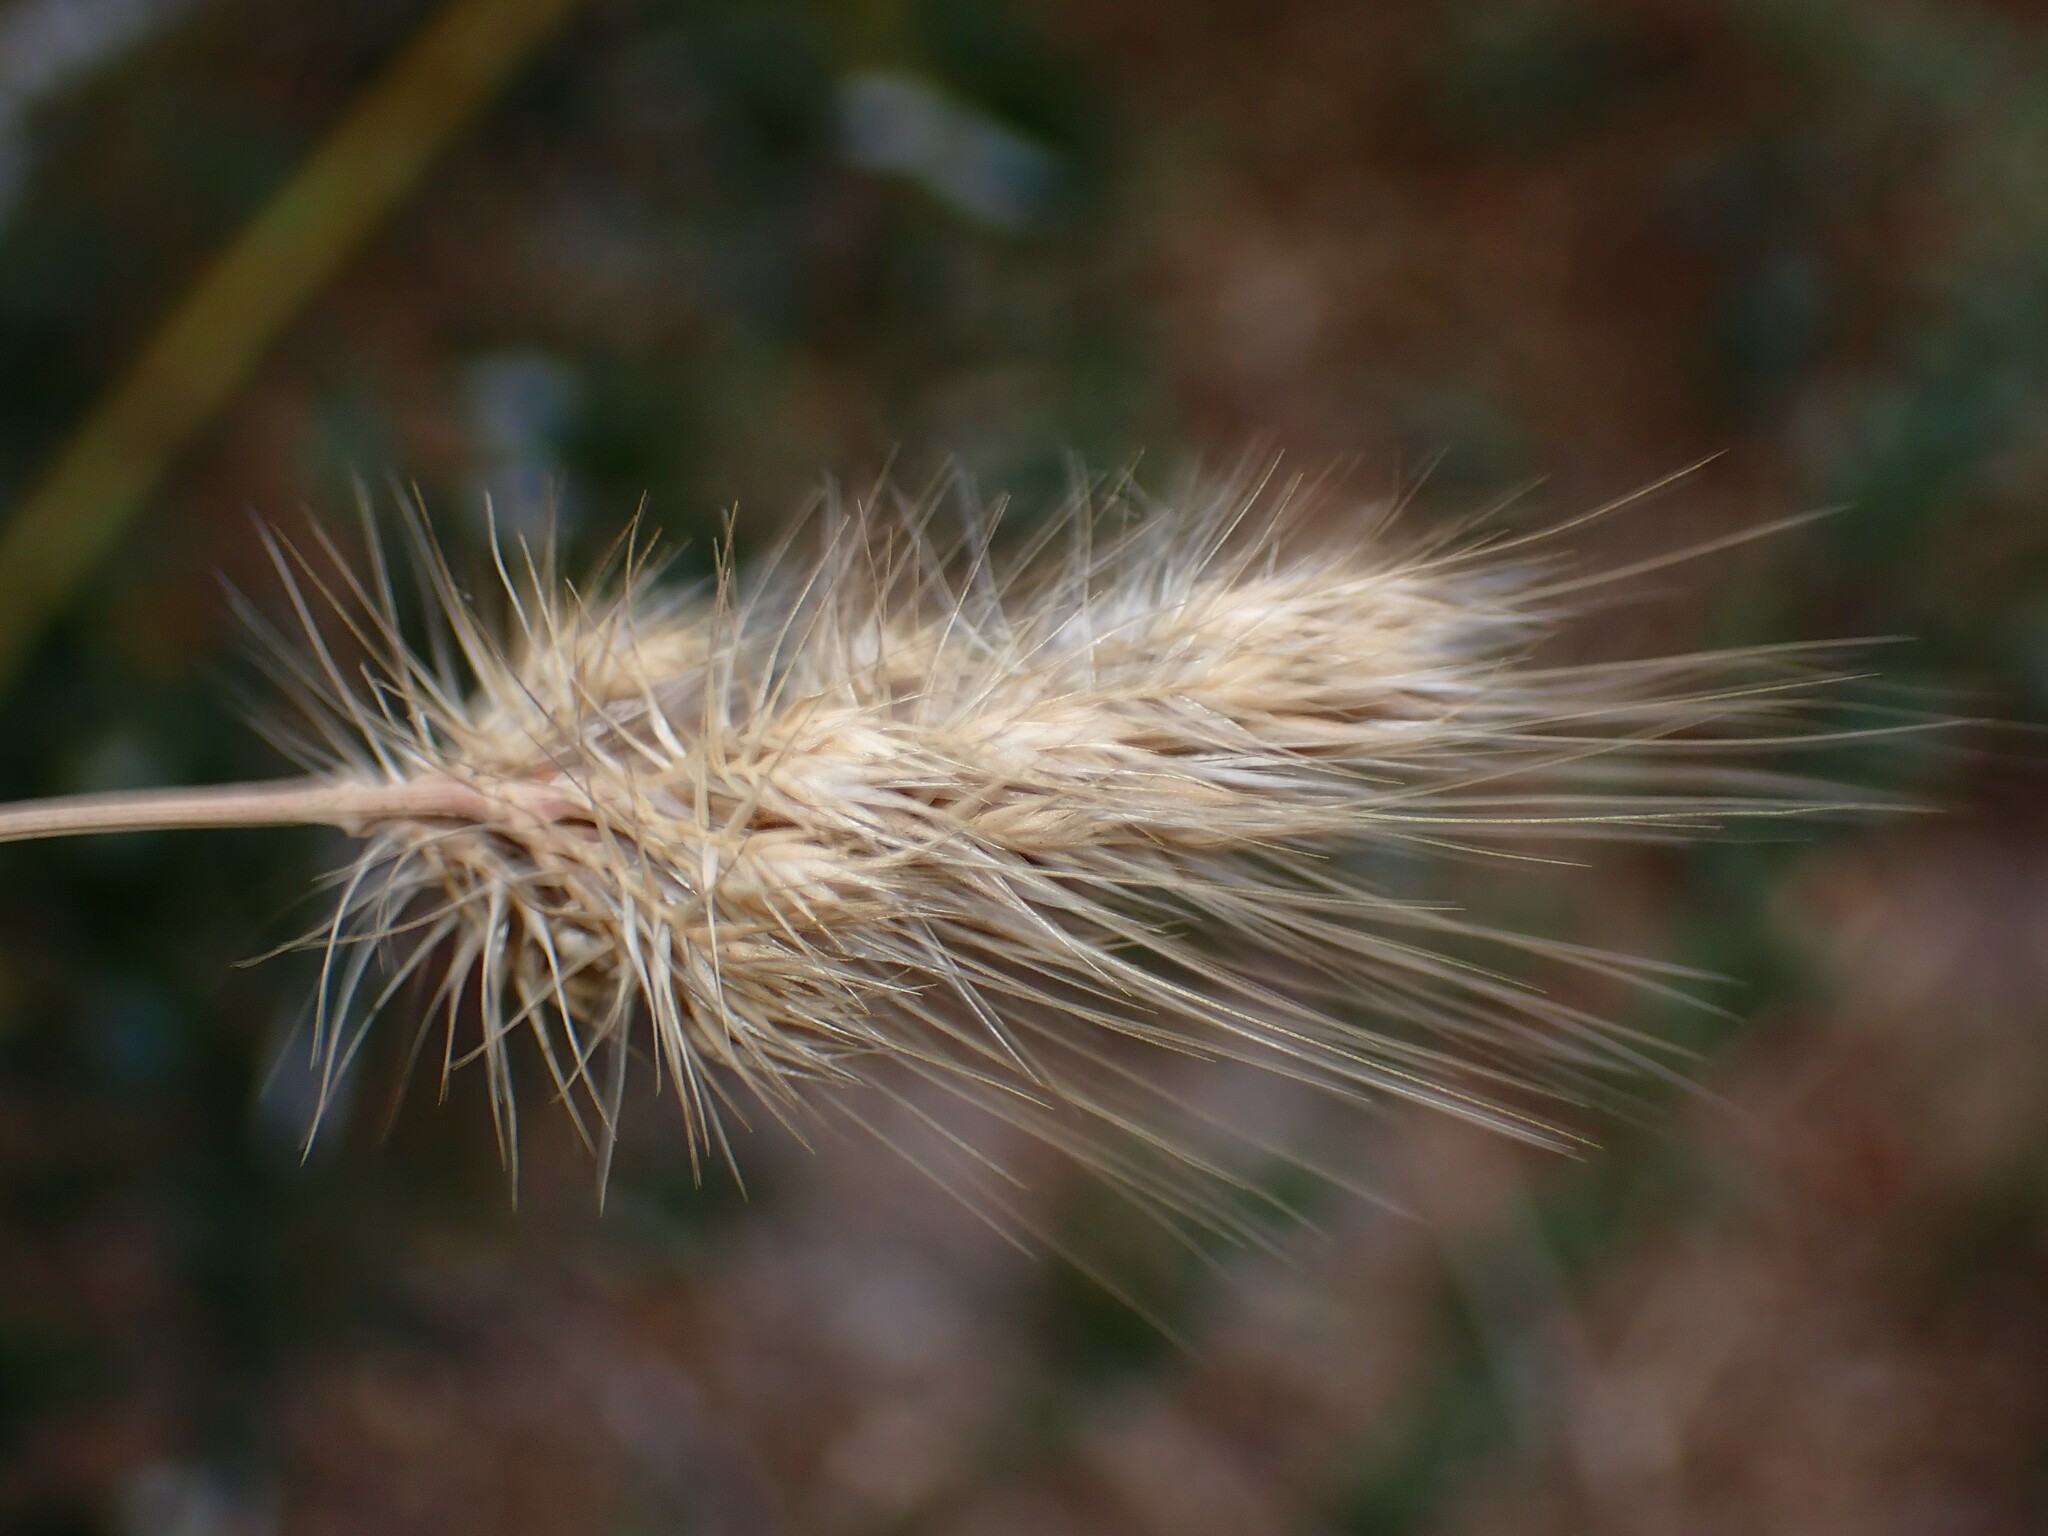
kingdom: Plantae
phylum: Tracheophyta
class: Liliopsida
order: Poales
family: Poaceae
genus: Cynosurus
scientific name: Cynosurus echinatus
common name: Rough dog's-tail
